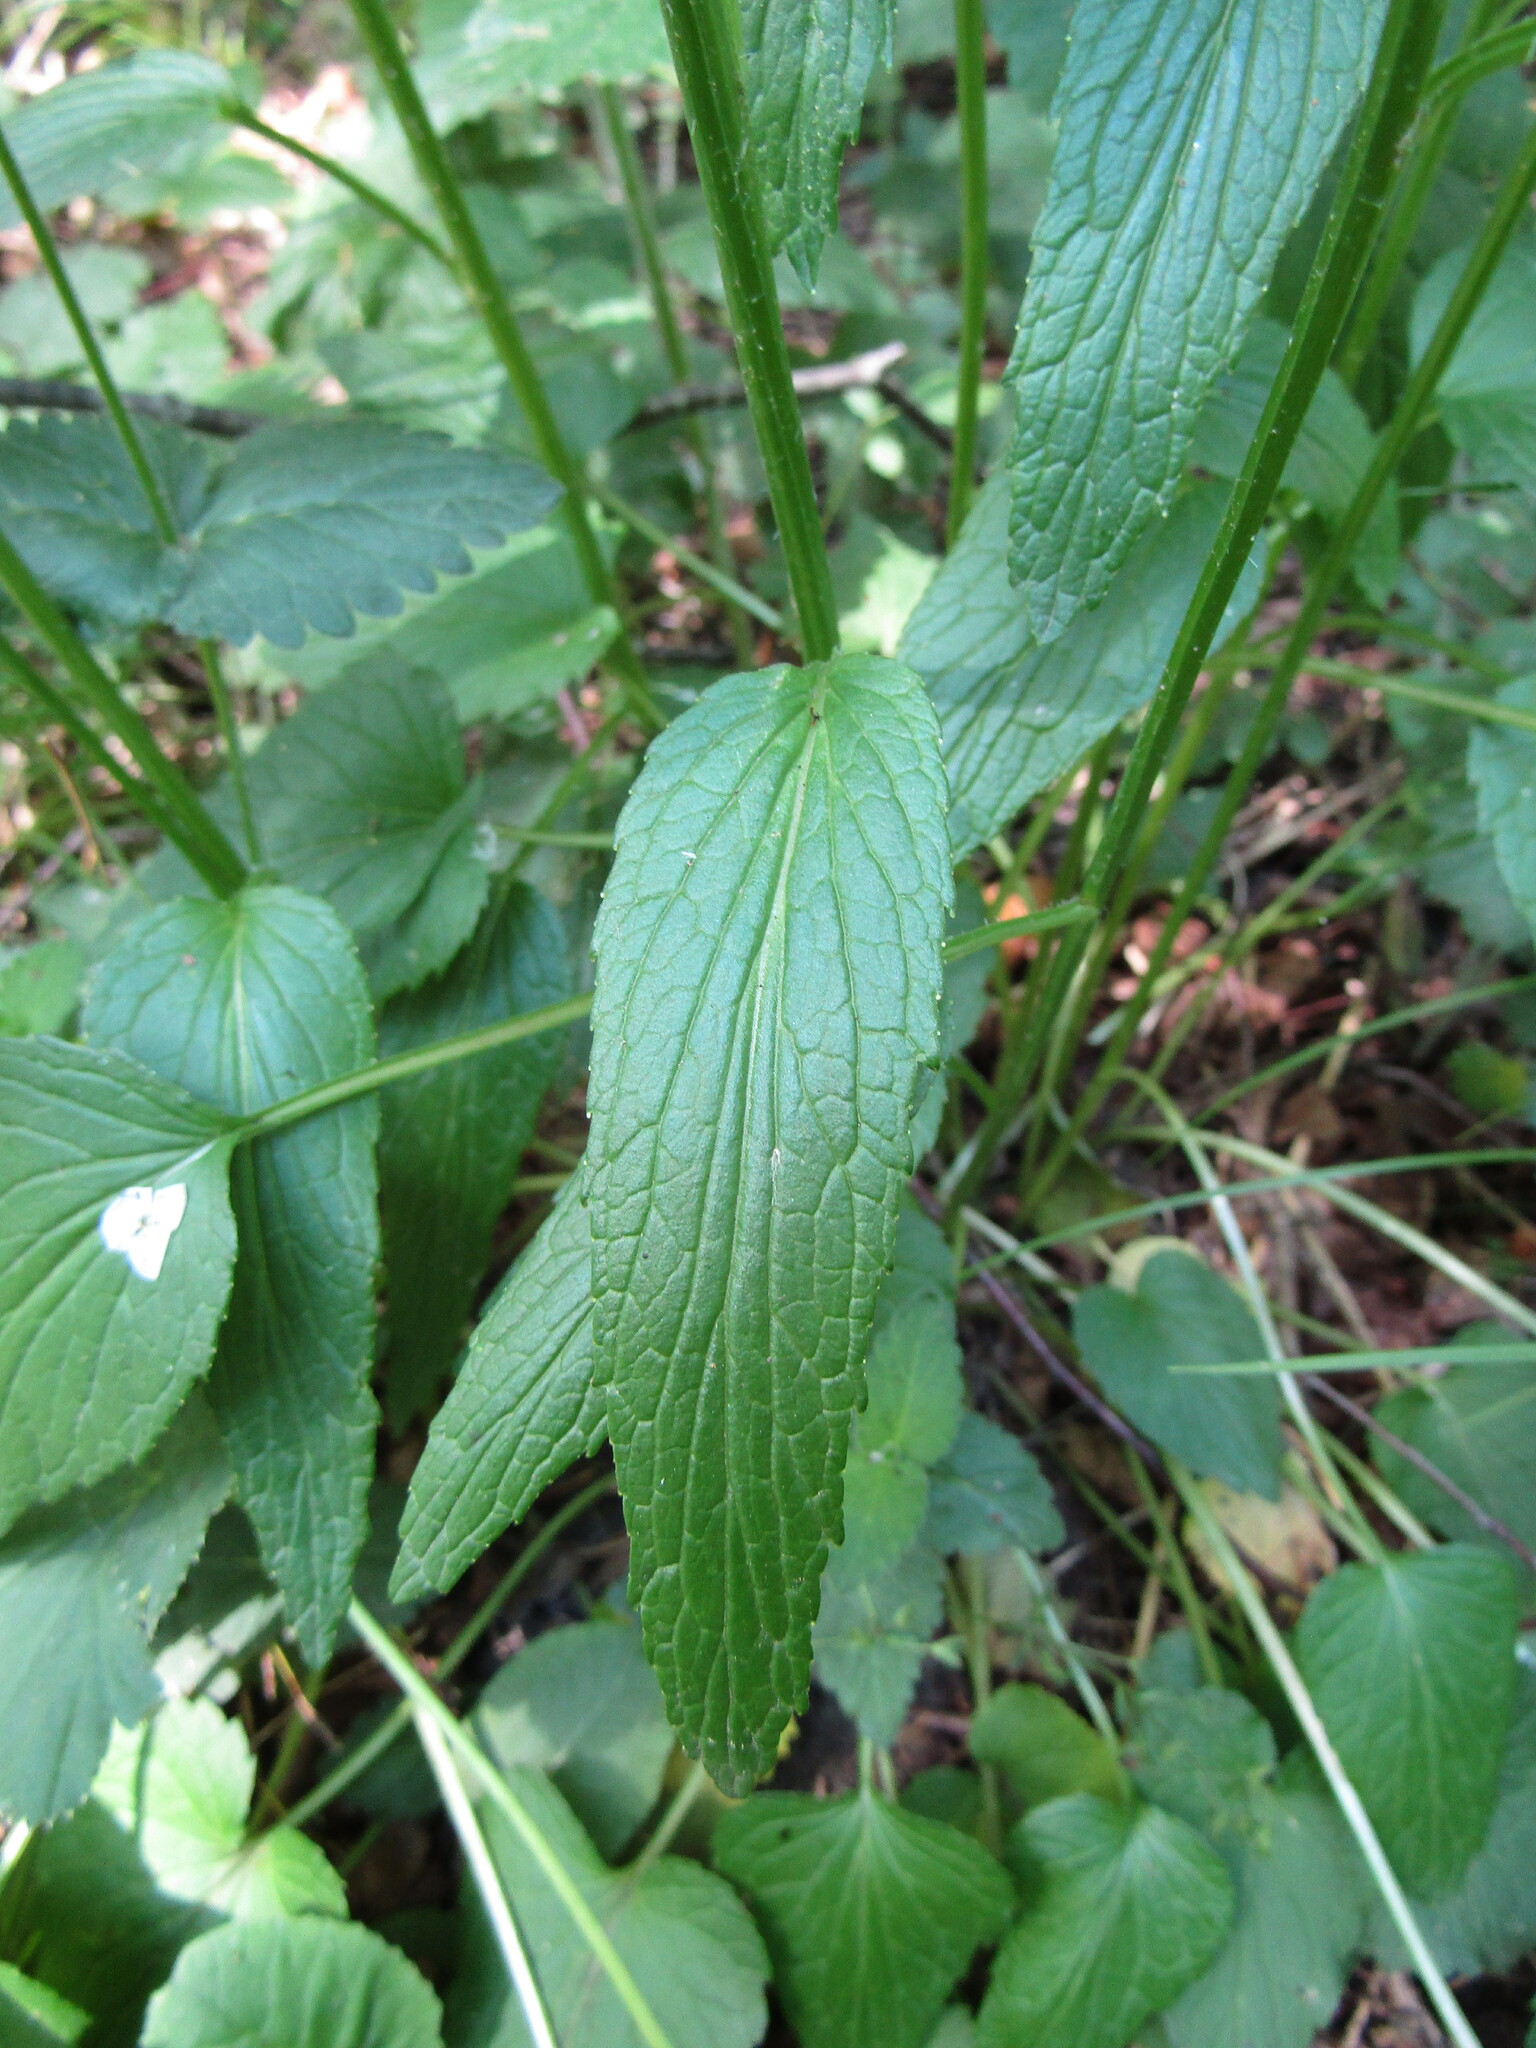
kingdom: Plantae
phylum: Tracheophyta
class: Magnoliopsida
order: Asterales
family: Campanulaceae
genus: Phyteuma
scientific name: Phyteuma spicatum
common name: Spiked rampion
